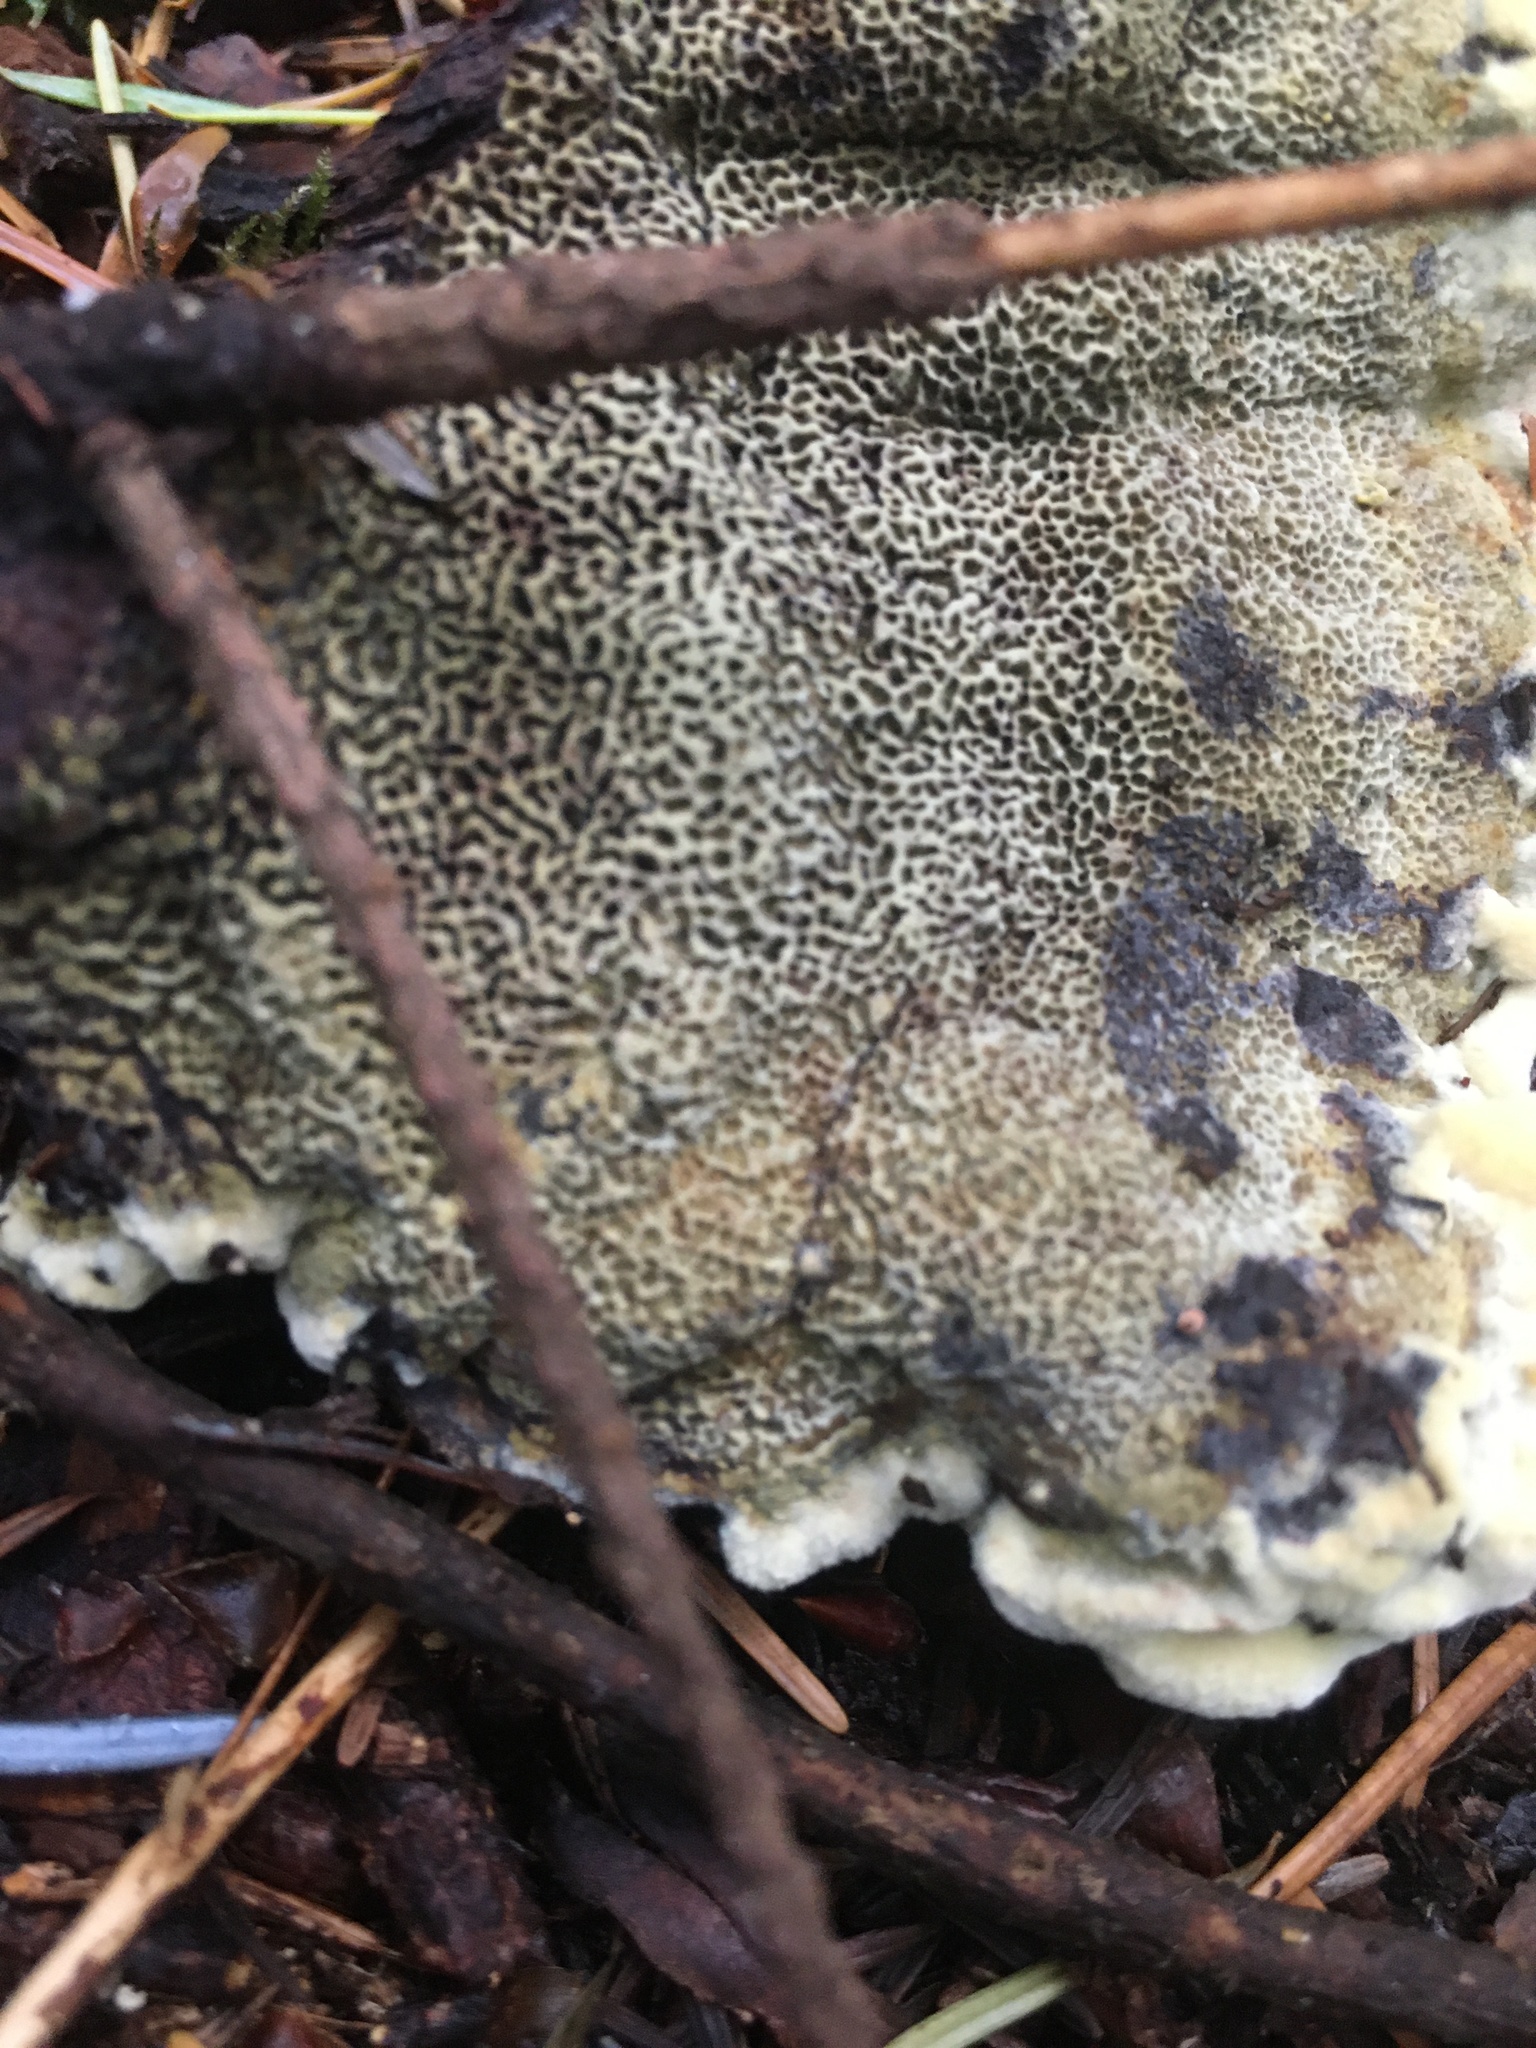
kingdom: Fungi
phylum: Basidiomycota
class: Agaricomycetes
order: Polyporales
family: Laetiporaceae
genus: Phaeolus
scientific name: Phaeolus schweinitzii
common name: Dyer's mazegill
